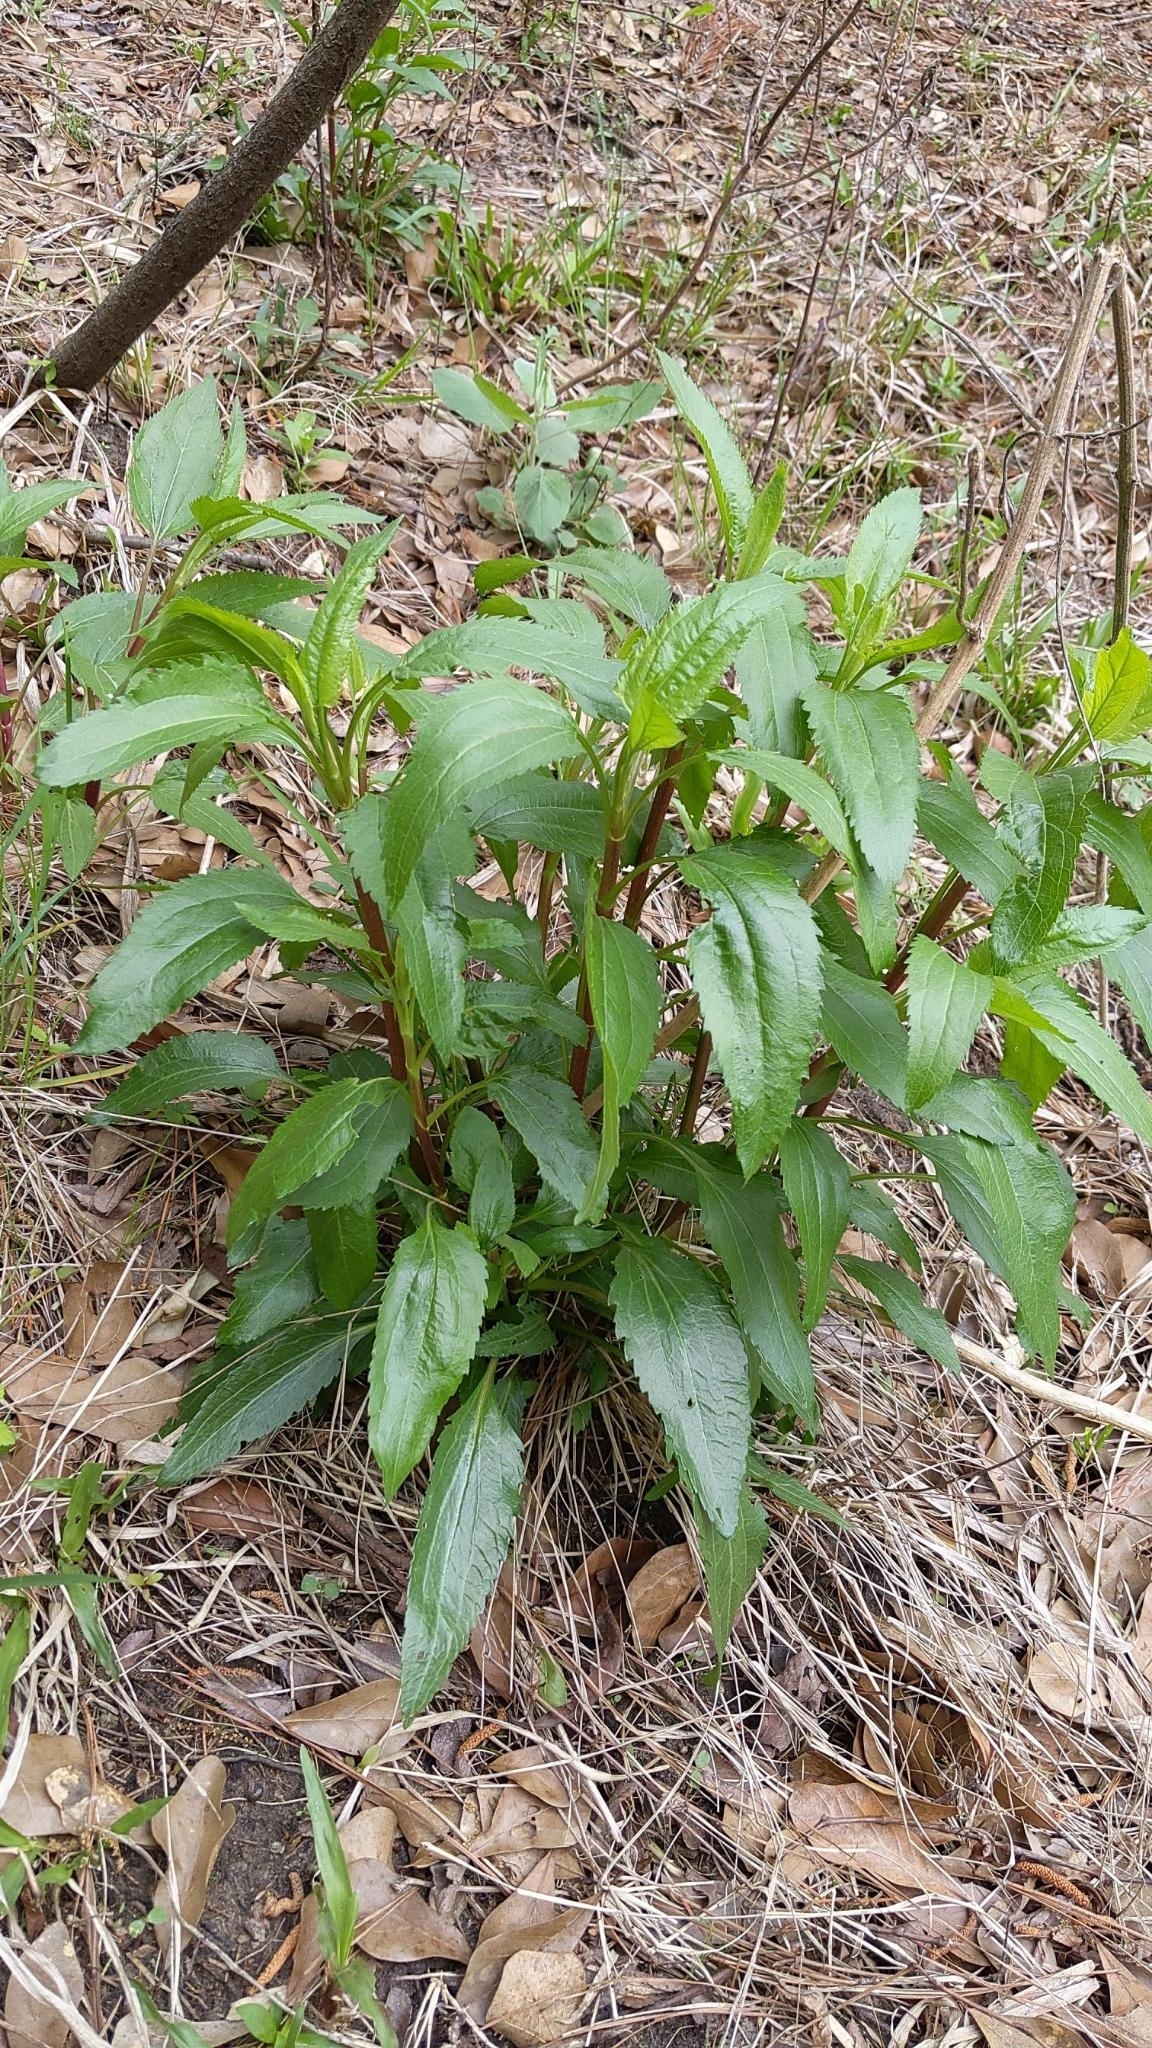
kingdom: Plantae
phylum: Tracheophyta
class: Magnoliopsida
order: Asterales
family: Asteraceae
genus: Eupatorium
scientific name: Eupatorium serotinum
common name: Late boneset
